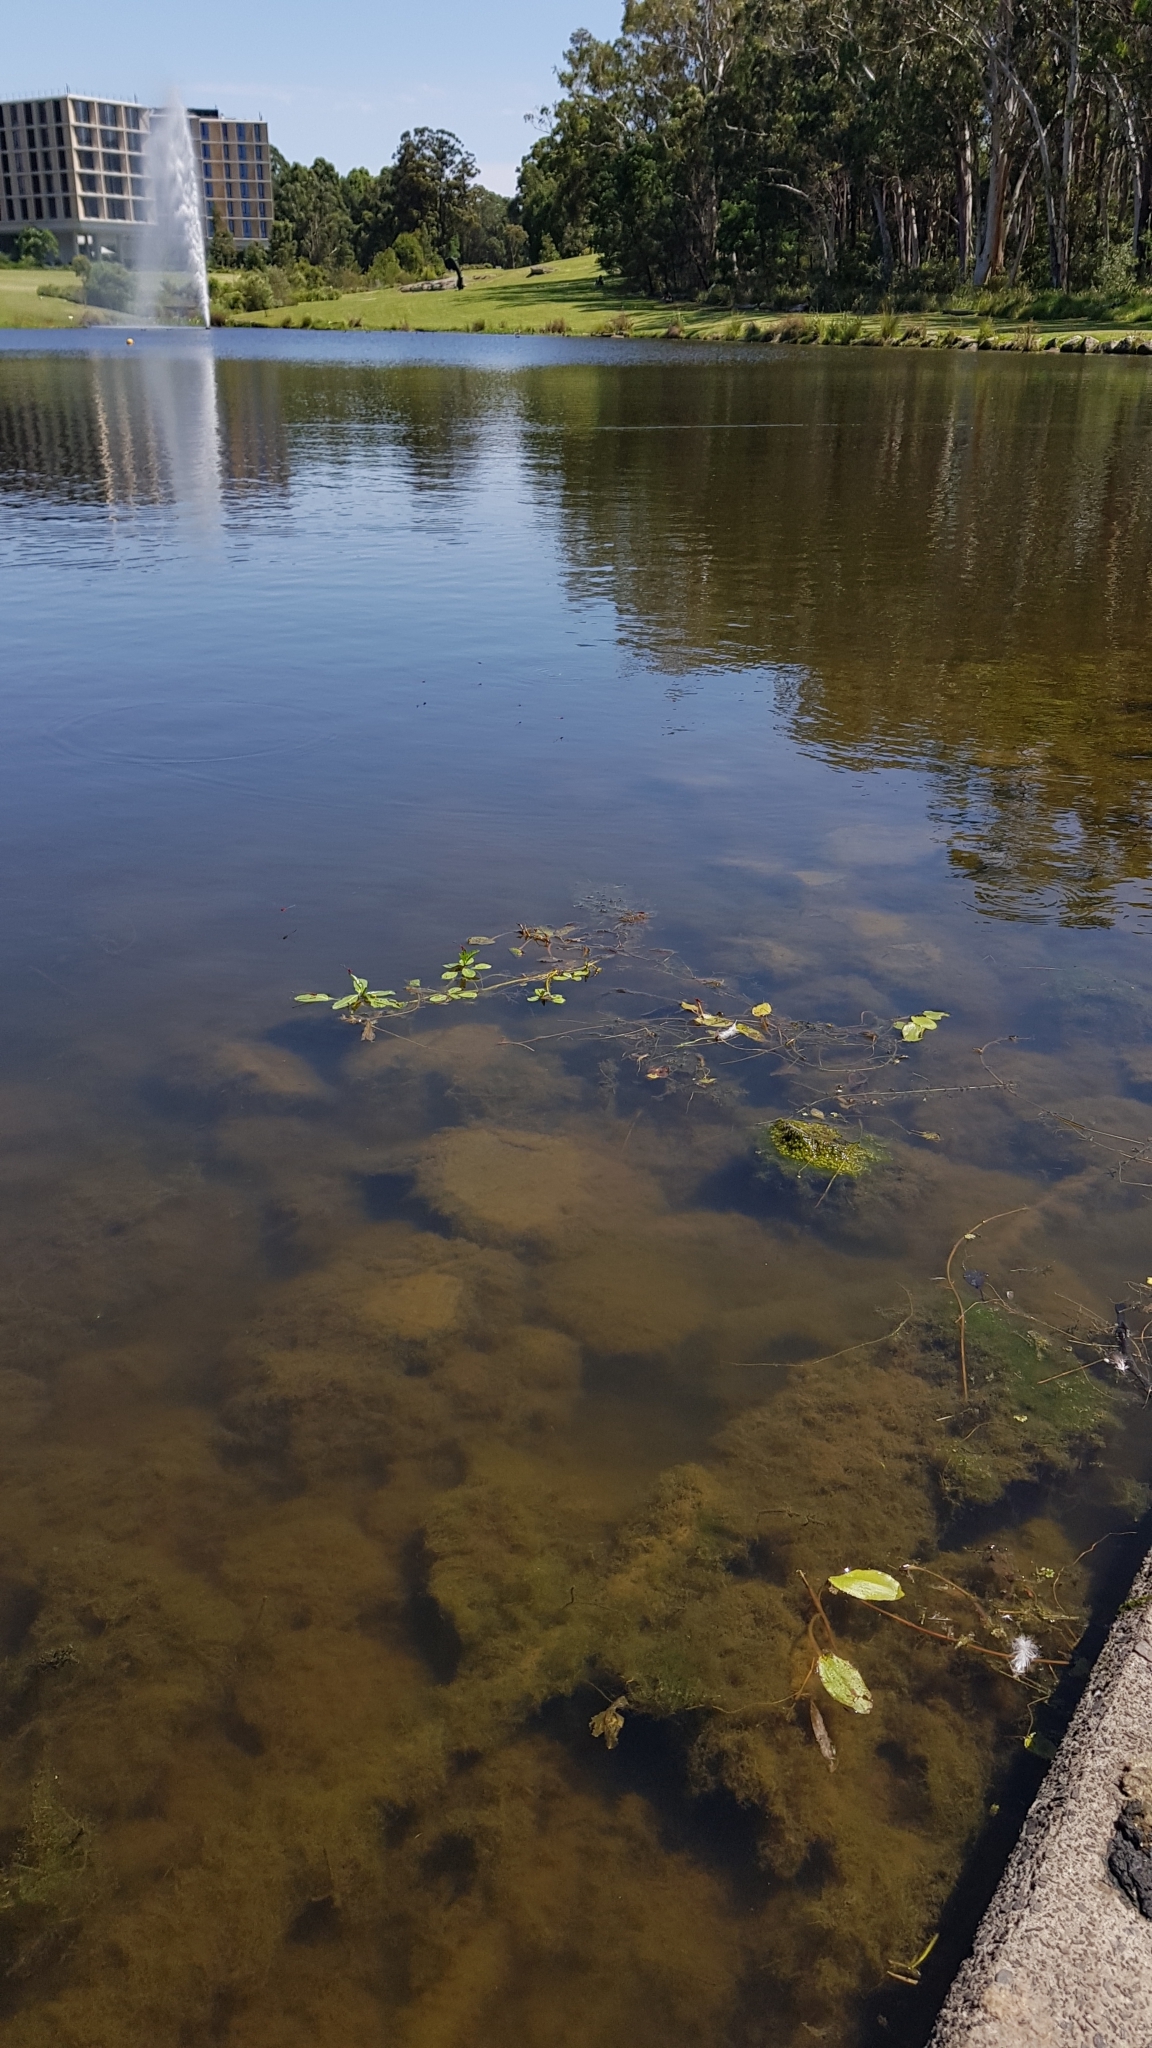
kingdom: Animalia
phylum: Arthropoda
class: Insecta
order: Odonata
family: Coenagrionidae
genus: Xanthagrion
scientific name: Xanthagrion erythroneurum
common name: Red and blue damsel
